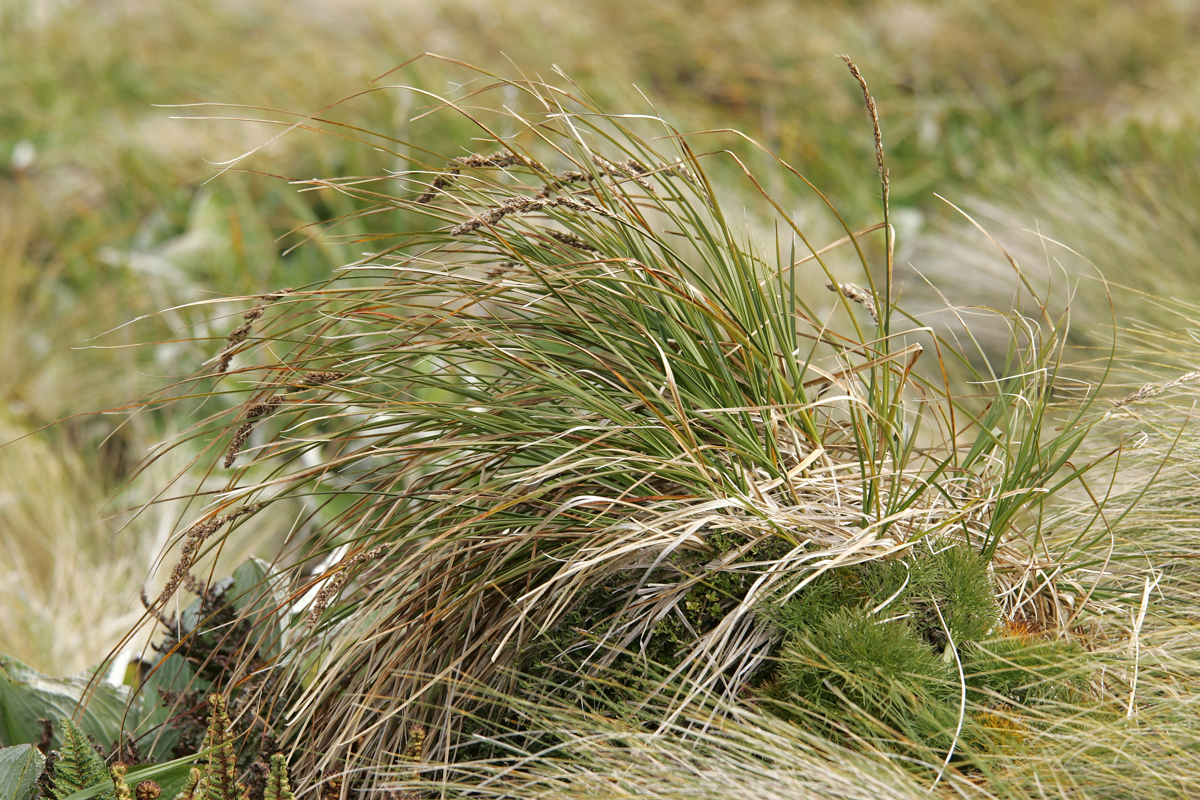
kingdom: Plantae
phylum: Tracheophyta
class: Liliopsida
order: Poales
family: Cyperaceae
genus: Carex
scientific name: Carex sectoides
